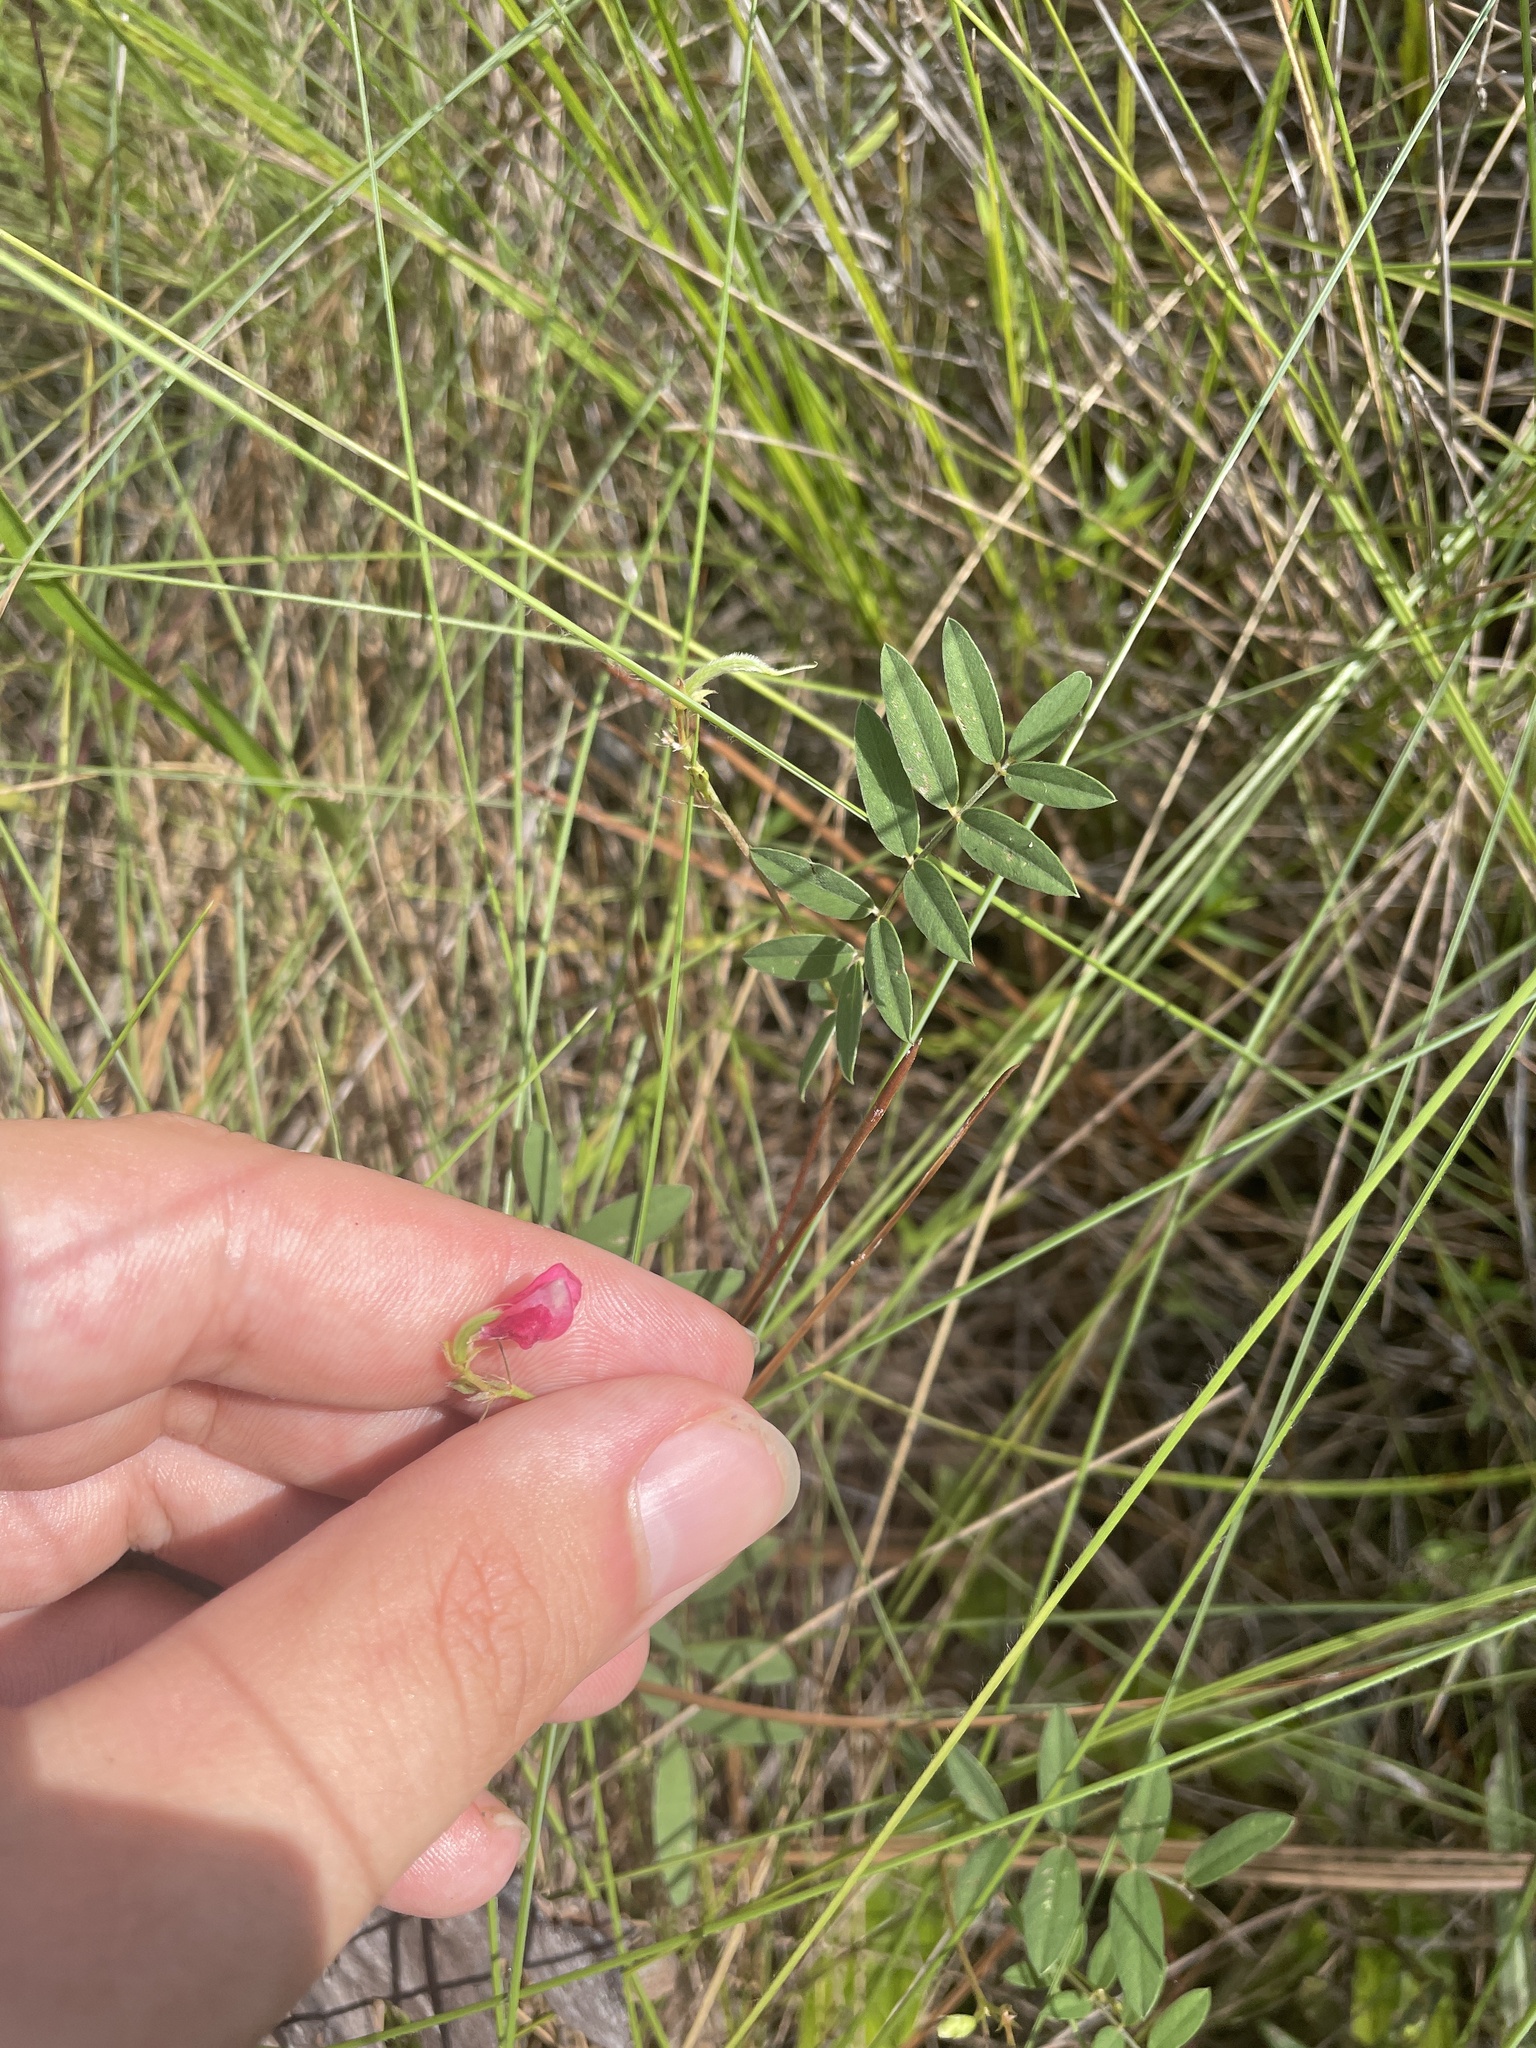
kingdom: Plantae
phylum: Tracheophyta
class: Magnoliopsida
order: Fabales
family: Fabaceae
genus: Tephrosia
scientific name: Tephrosia spicata
